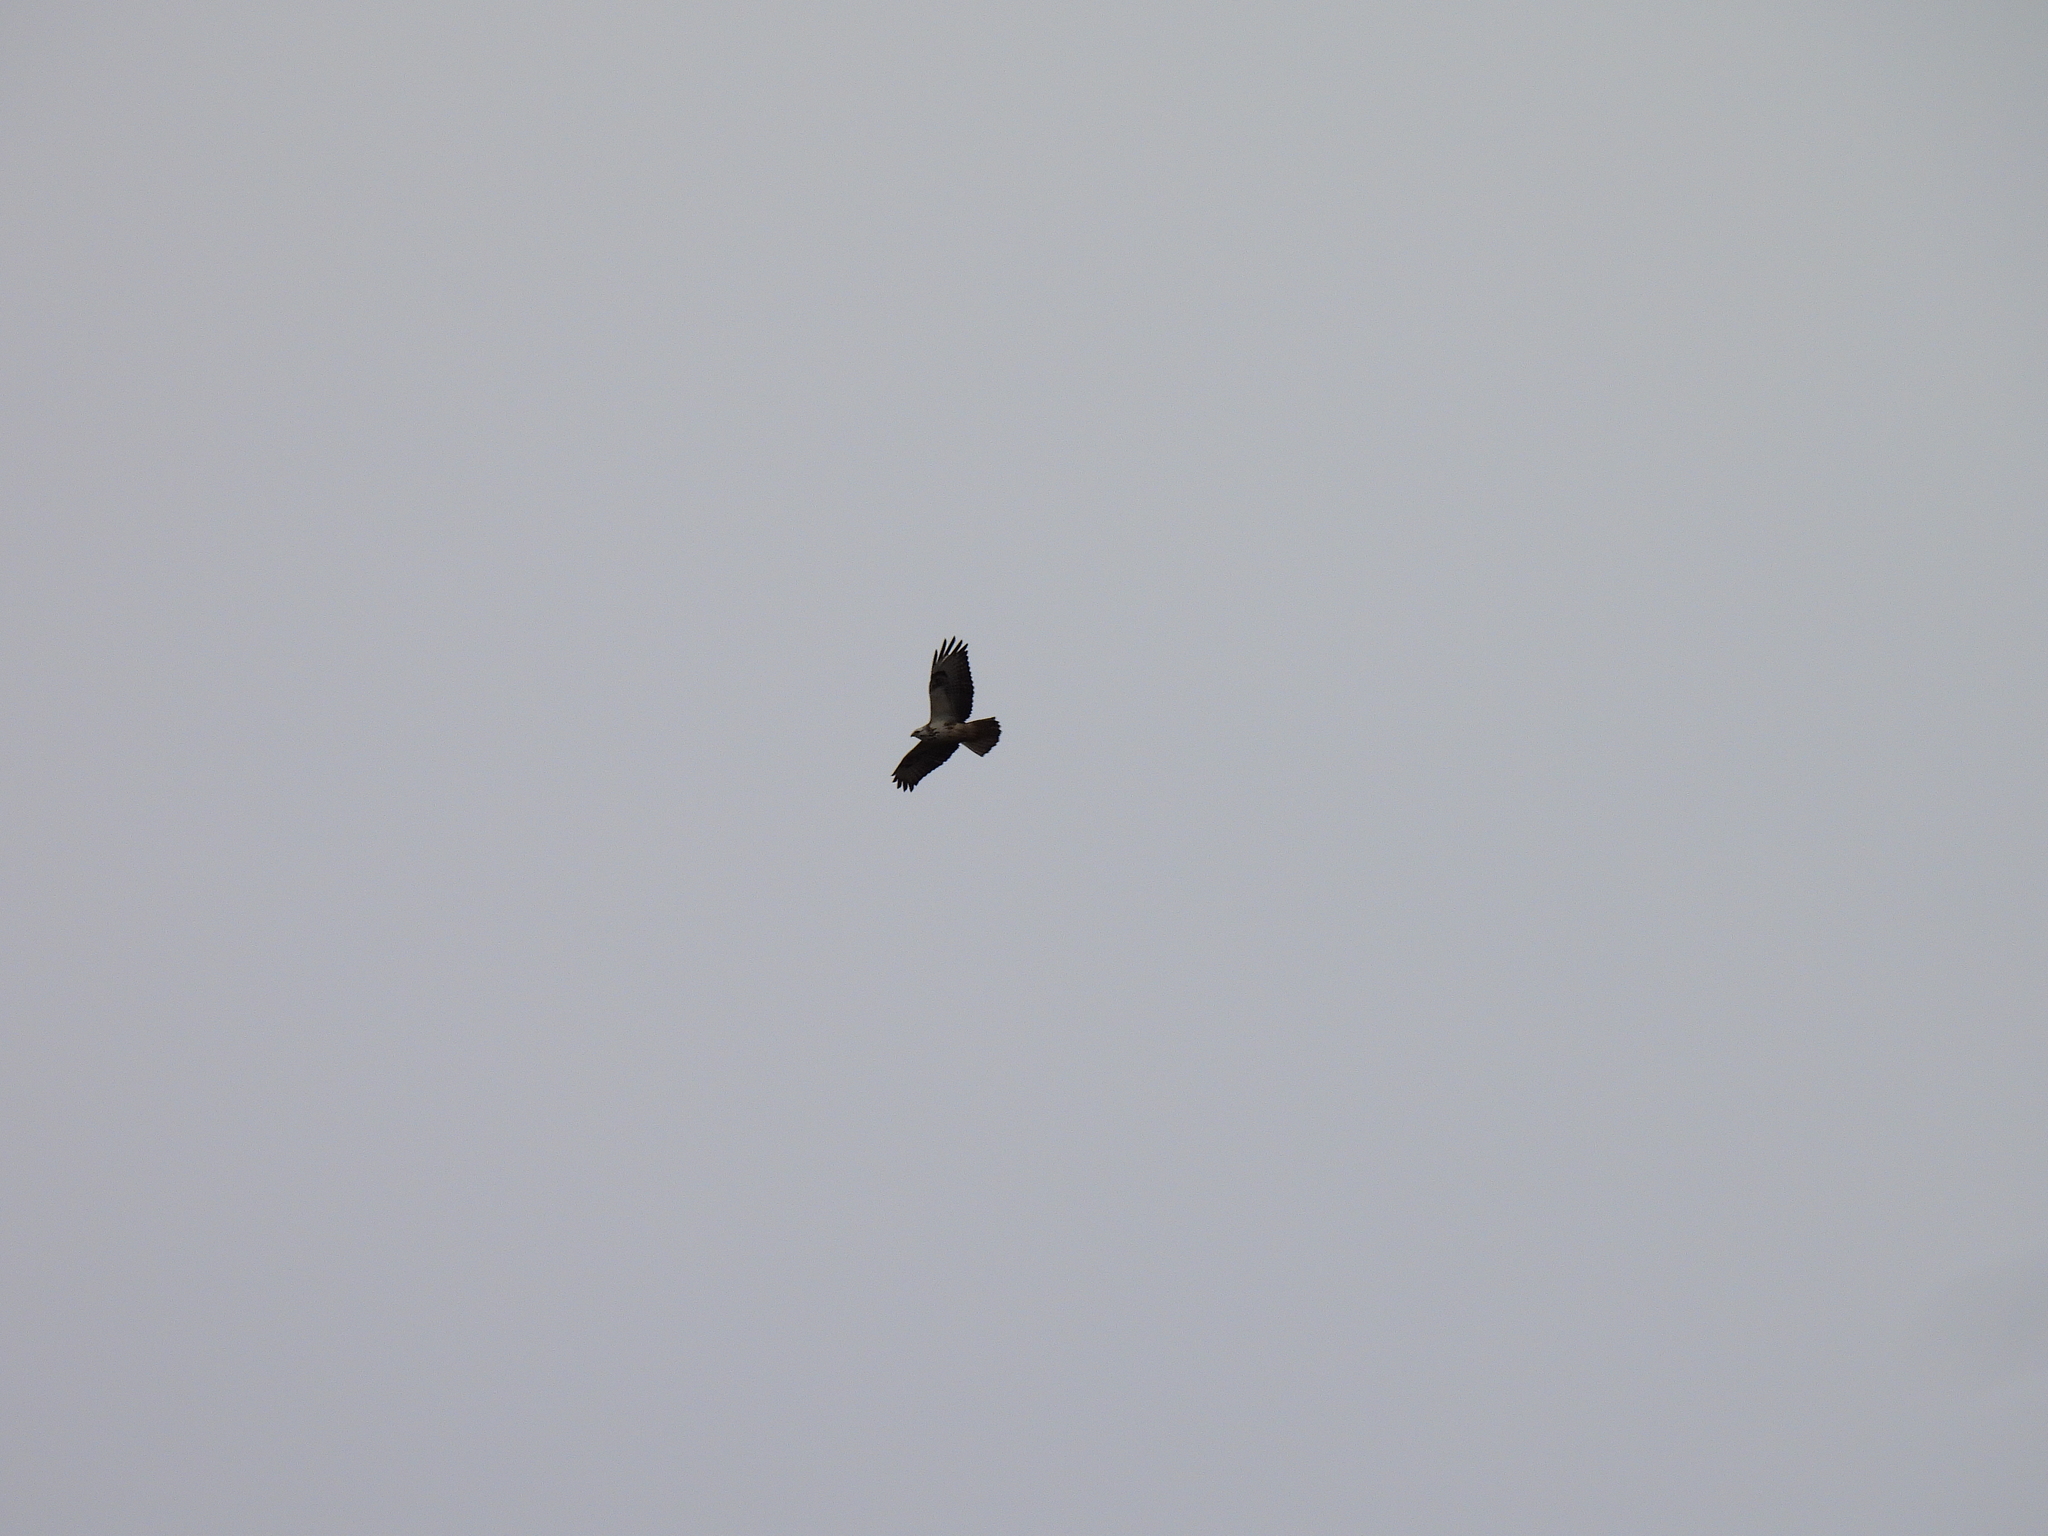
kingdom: Animalia
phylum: Chordata
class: Aves
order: Accipitriformes
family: Accipitridae
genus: Buteo
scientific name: Buteo buteo
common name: Common buzzard
